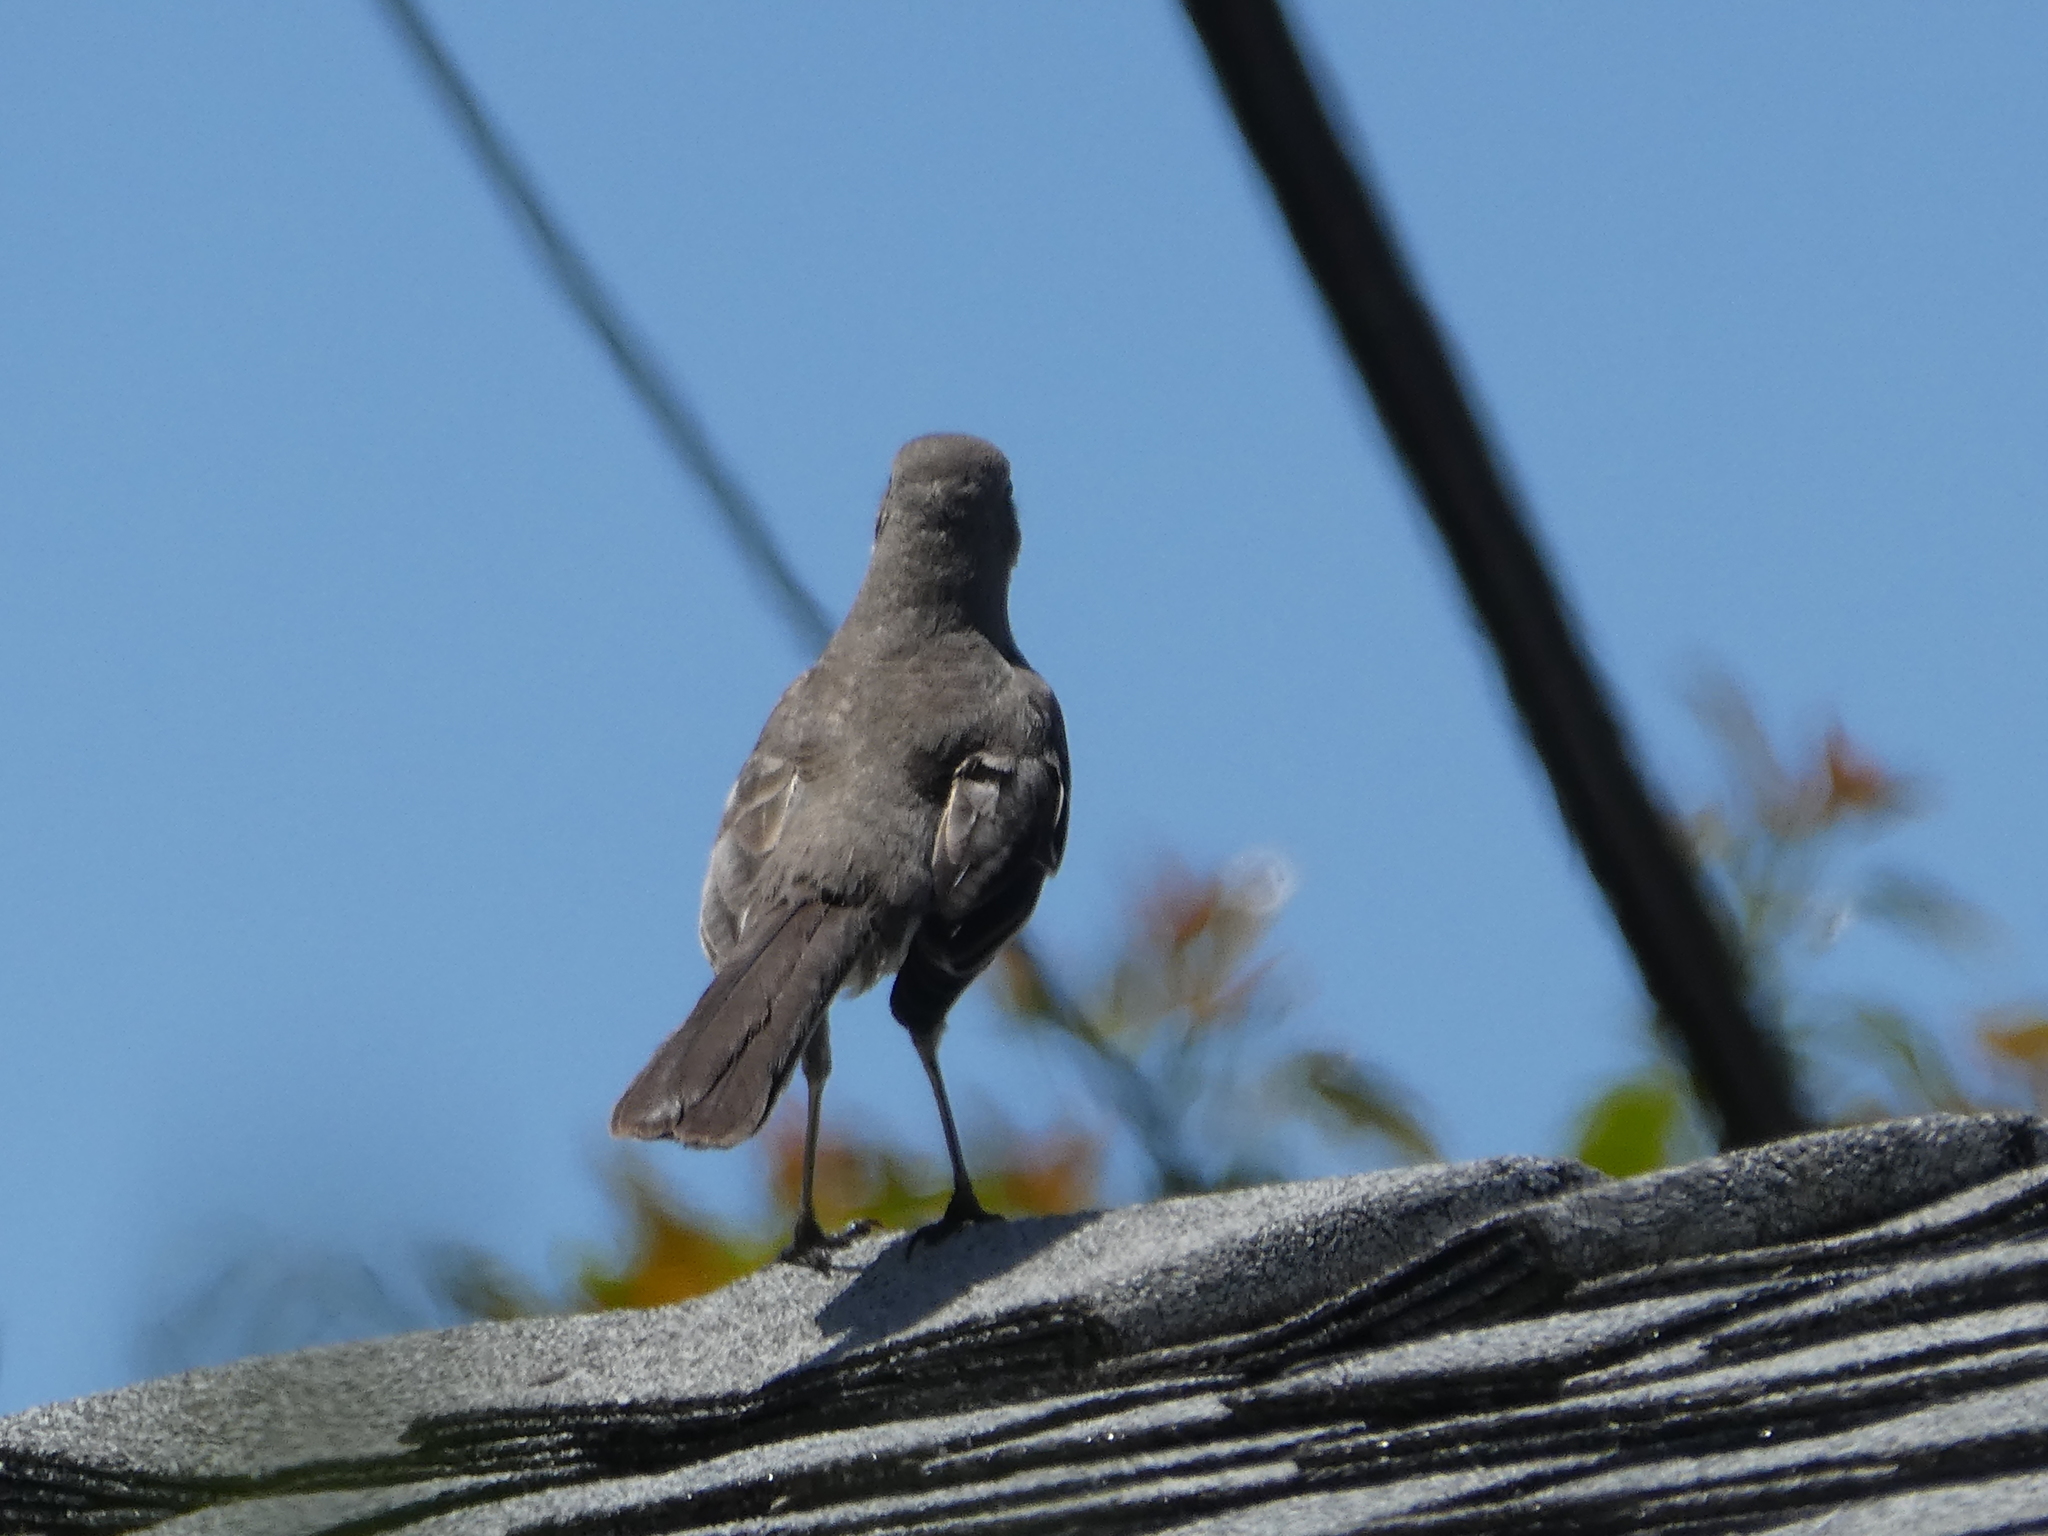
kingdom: Animalia
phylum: Chordata
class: Aves
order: Passeriformes
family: Mimidae
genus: Mimus
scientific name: Mimus polyglottos
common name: Northern mockingbird
